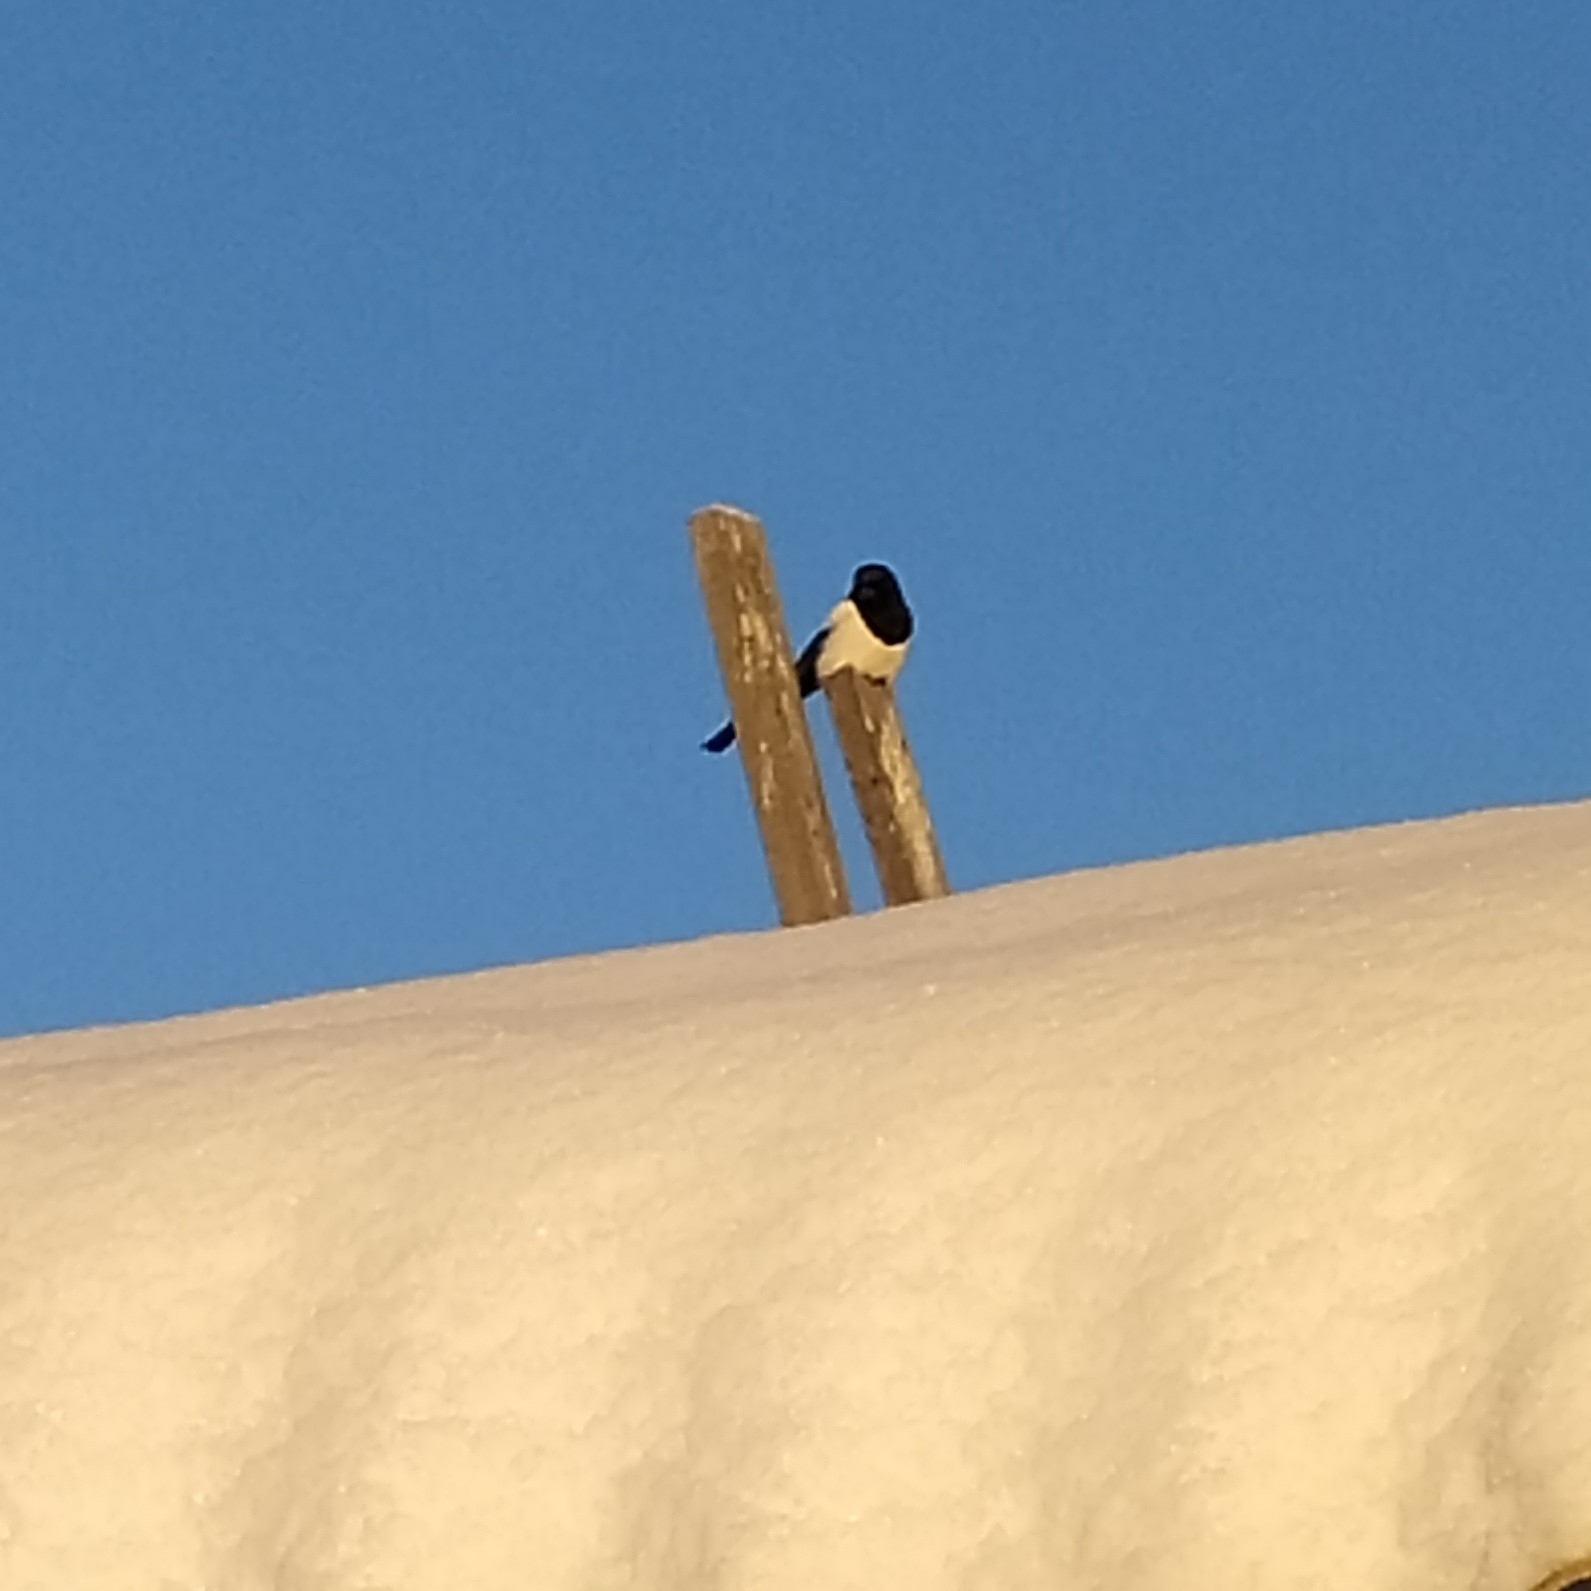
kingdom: Animalia
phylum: Chordata
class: Aves
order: Passeriformes
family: Corvidae
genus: Pica
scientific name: Pica pica
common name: Eurasian magpie
